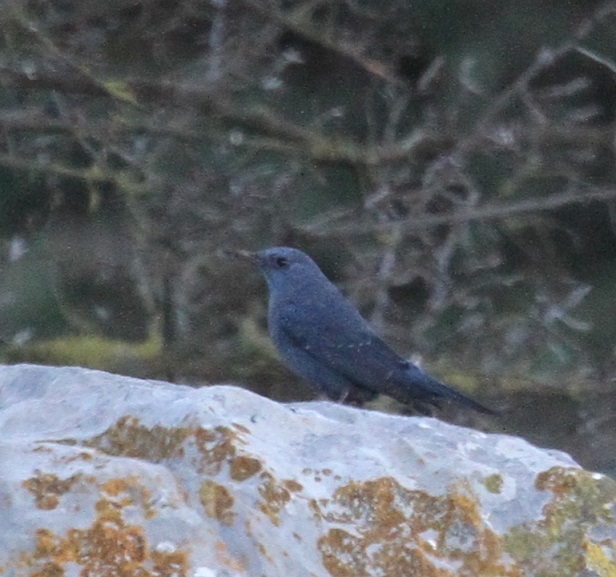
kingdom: Animalia
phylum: Chordata
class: Aves
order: Passeriformes
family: Muscicapidae
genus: Monticola
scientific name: Monticola solitarius
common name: Blue rock thrush
